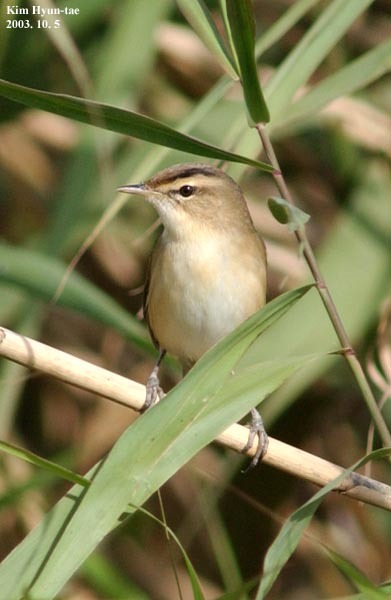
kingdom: Animalia
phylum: Chordata
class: Aves
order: Passeriformes
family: Acrocephalidae
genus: Acrocephalus
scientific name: Acrocephalus bistrigiceps
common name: Black-browed reed warbler
